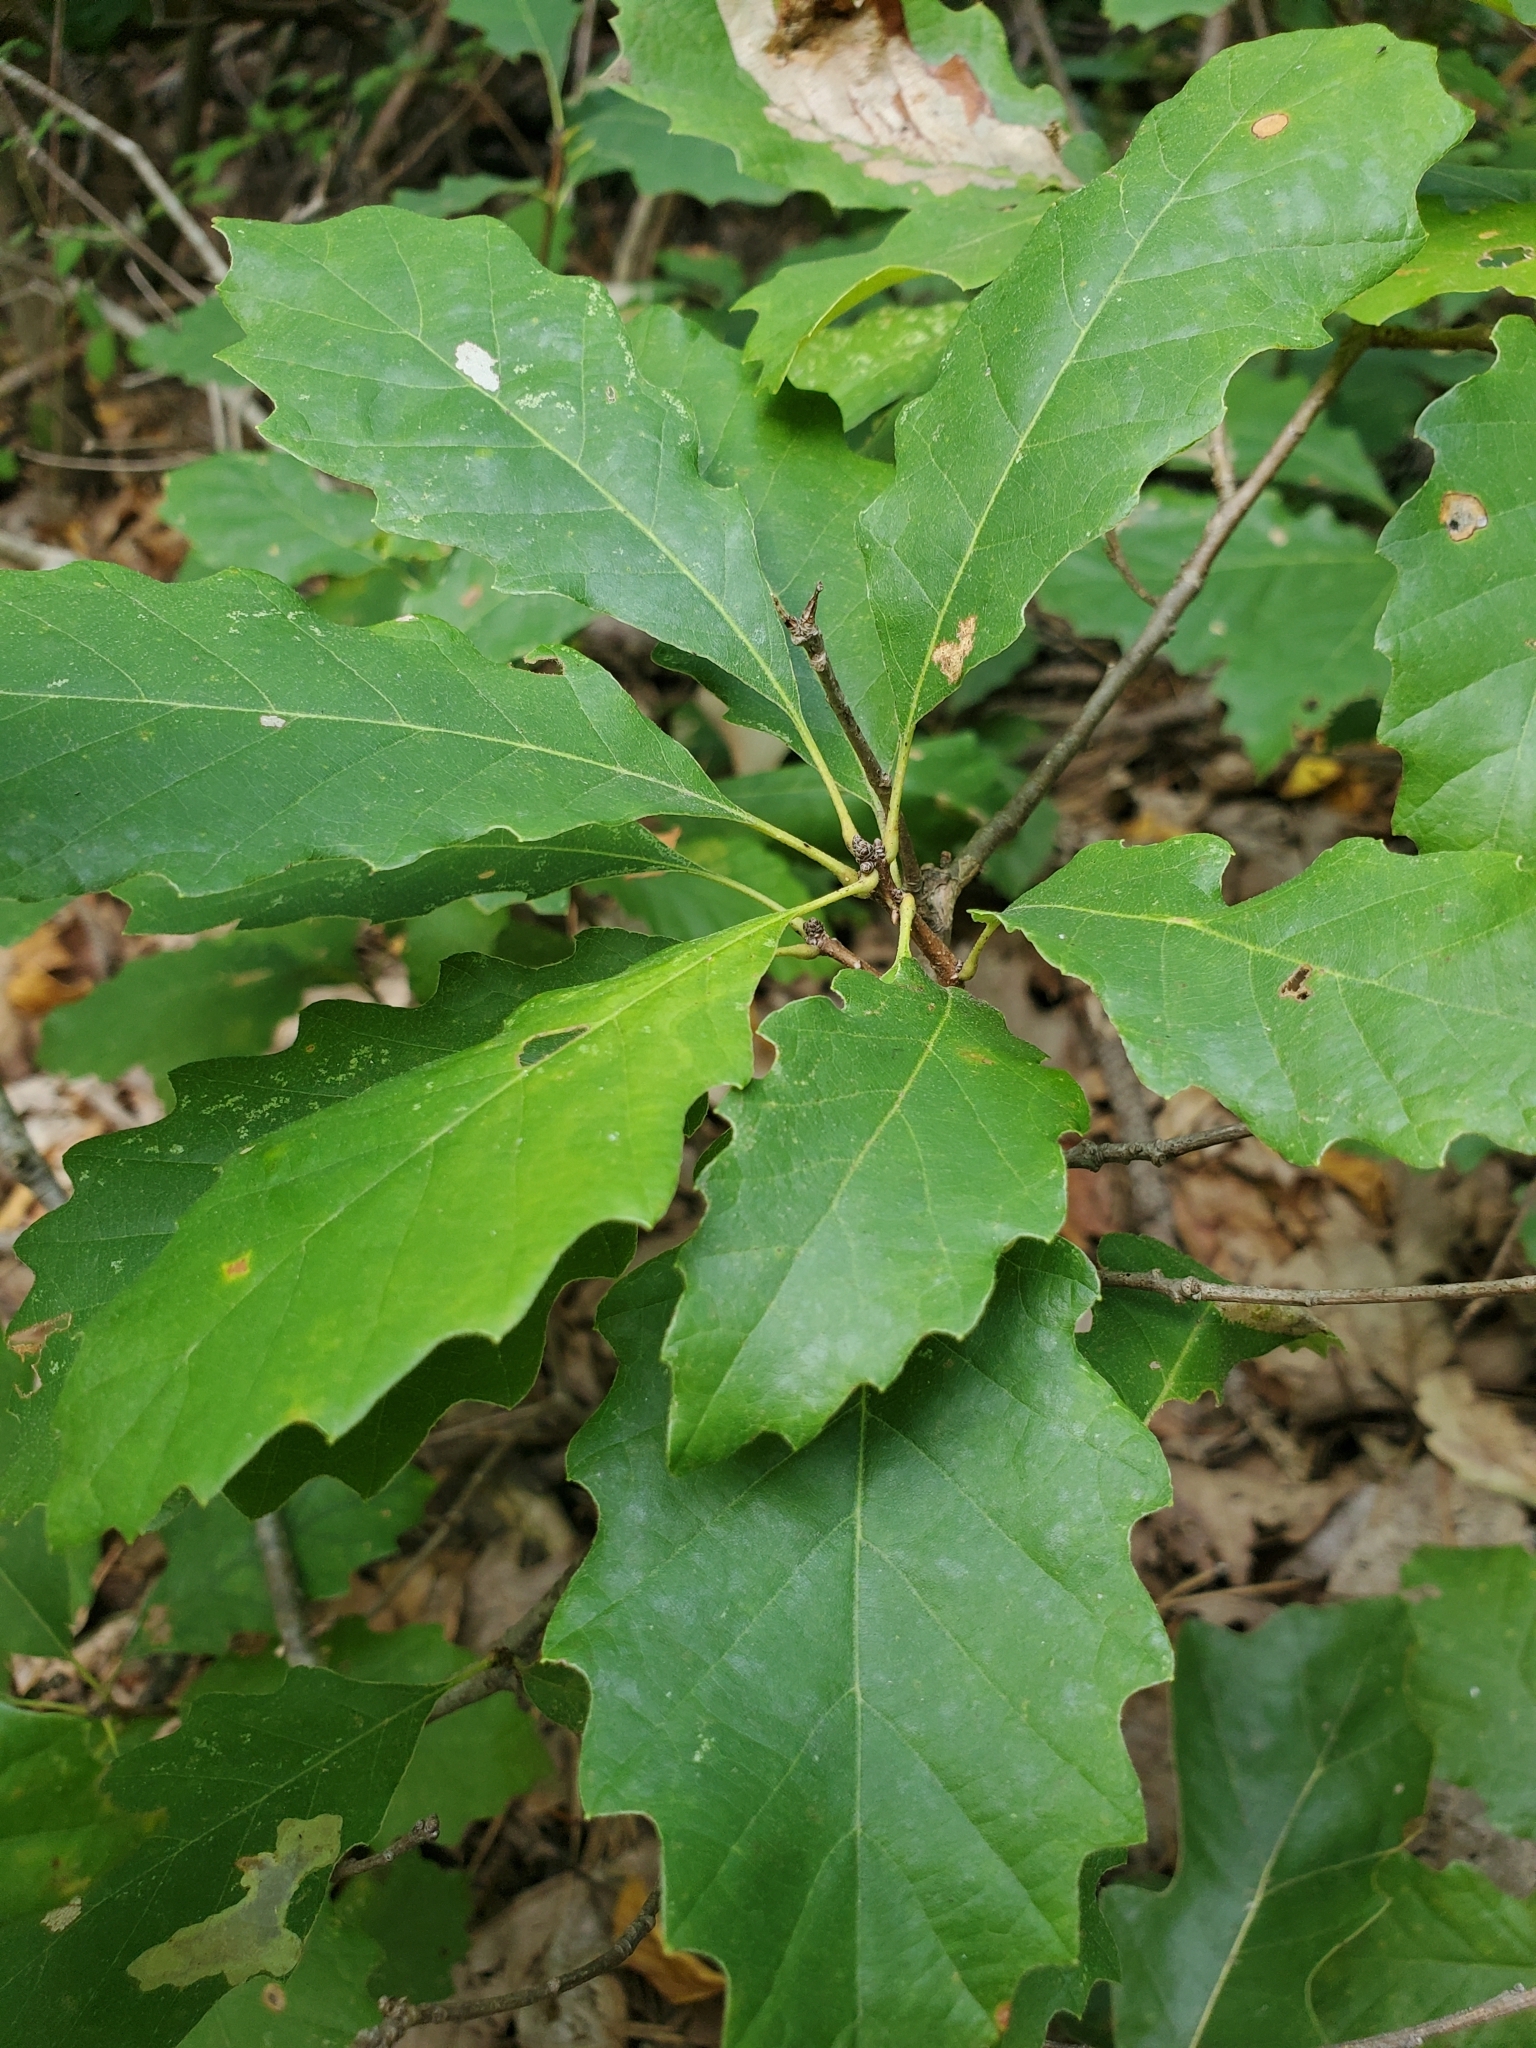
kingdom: Plantae
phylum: Tracheophyta
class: Magnoliopsida
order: Fagales
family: Fagaceae
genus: Quercus
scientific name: Quercus prinoides
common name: Dwarf chinkapin oak
